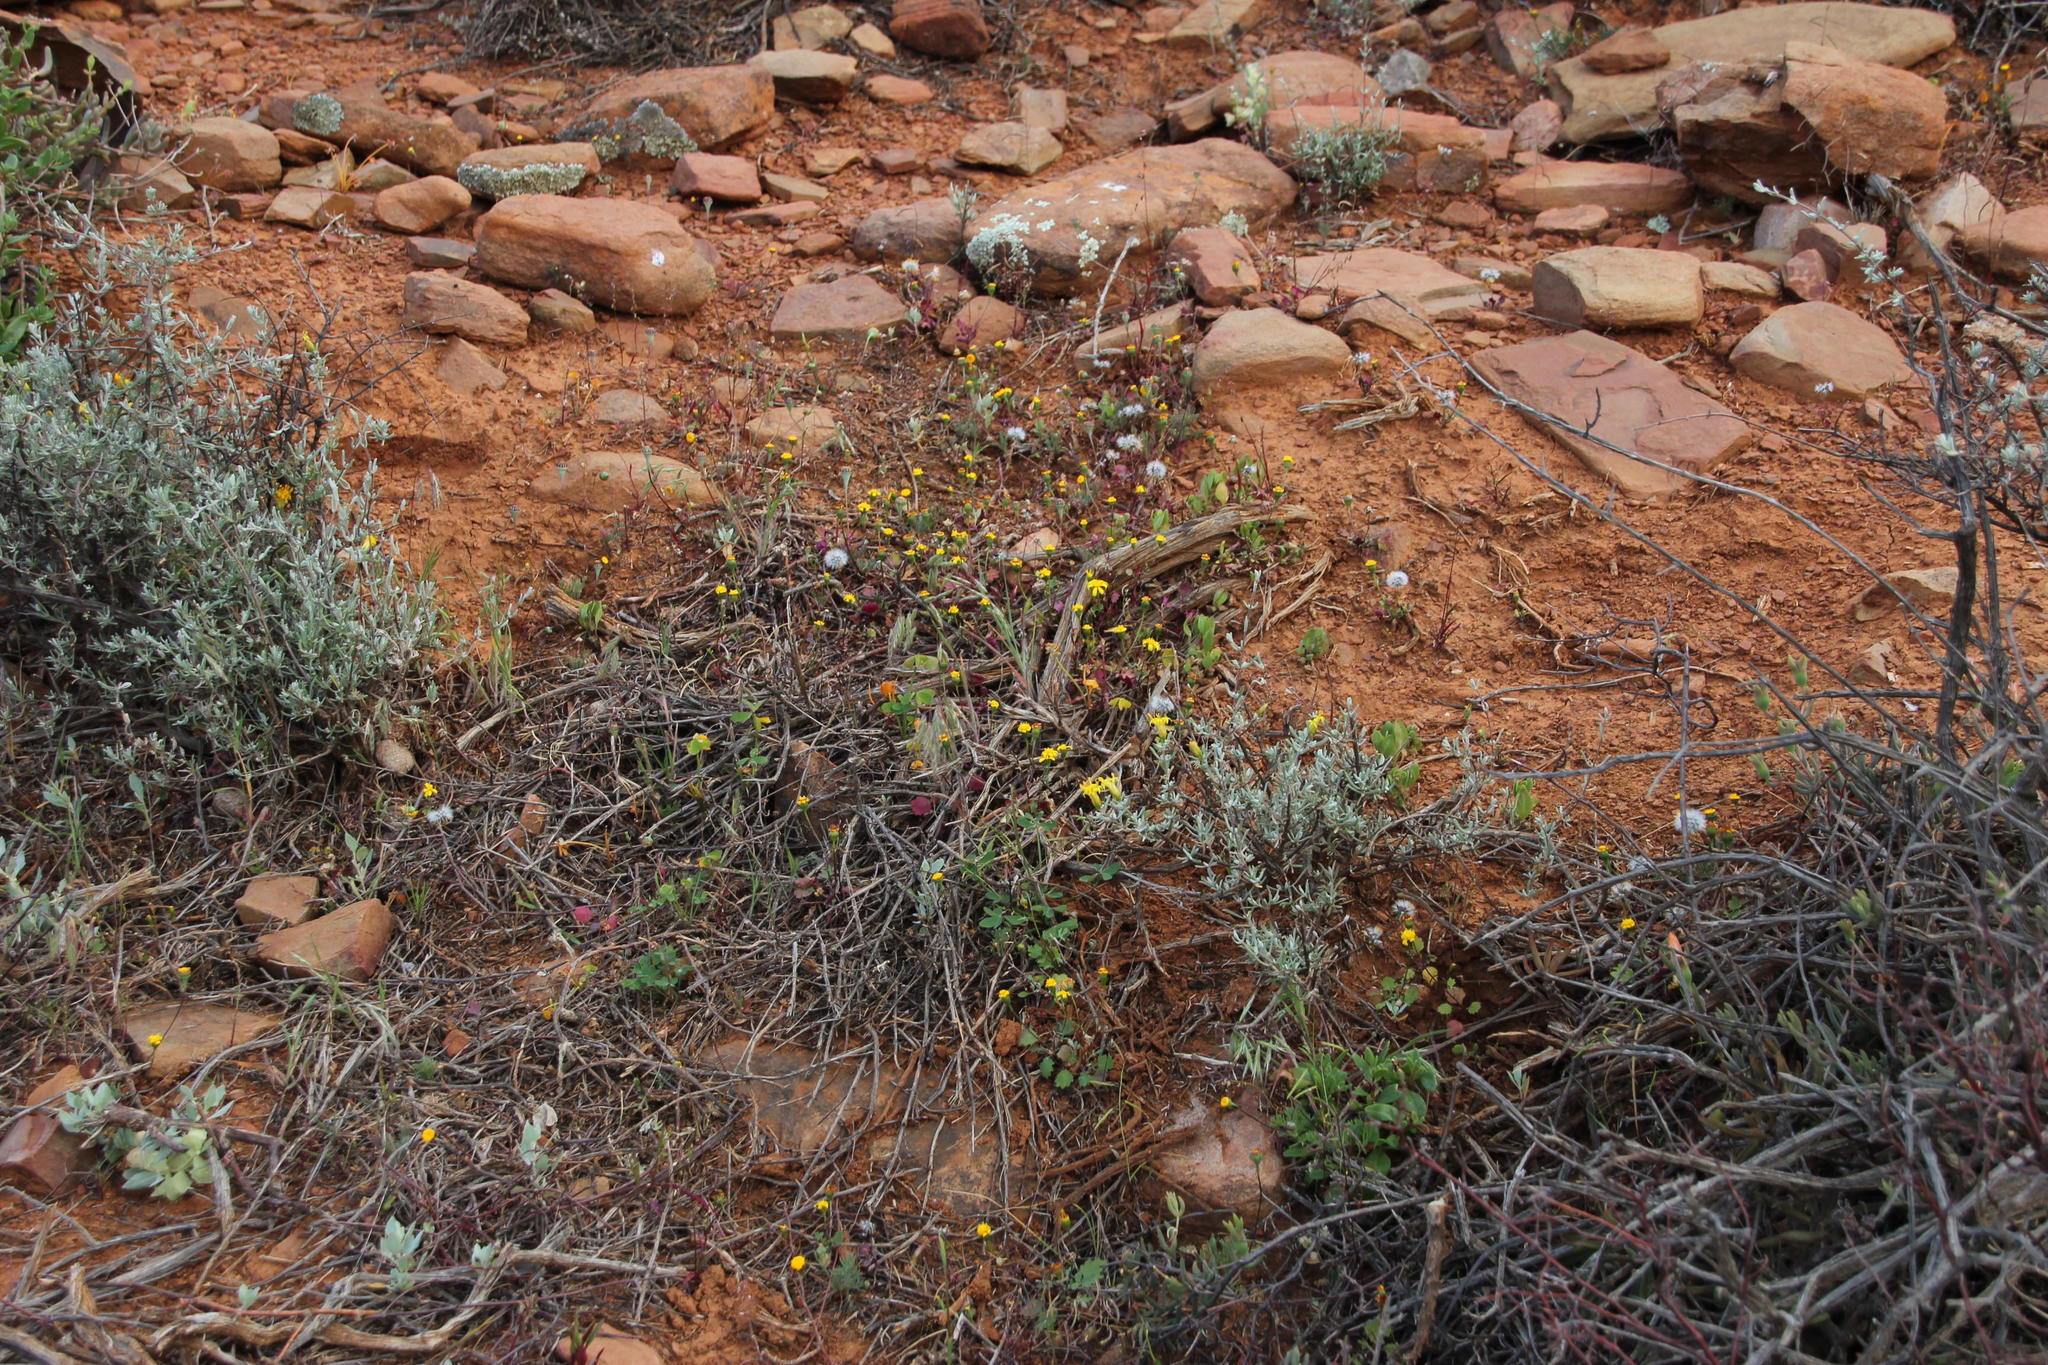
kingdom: Plantae
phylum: Tracheophyta
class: Magnoliopsida
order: Asterales
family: Asteraceae
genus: Stilpnogyne
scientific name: Stilpnogyne bellidioides
